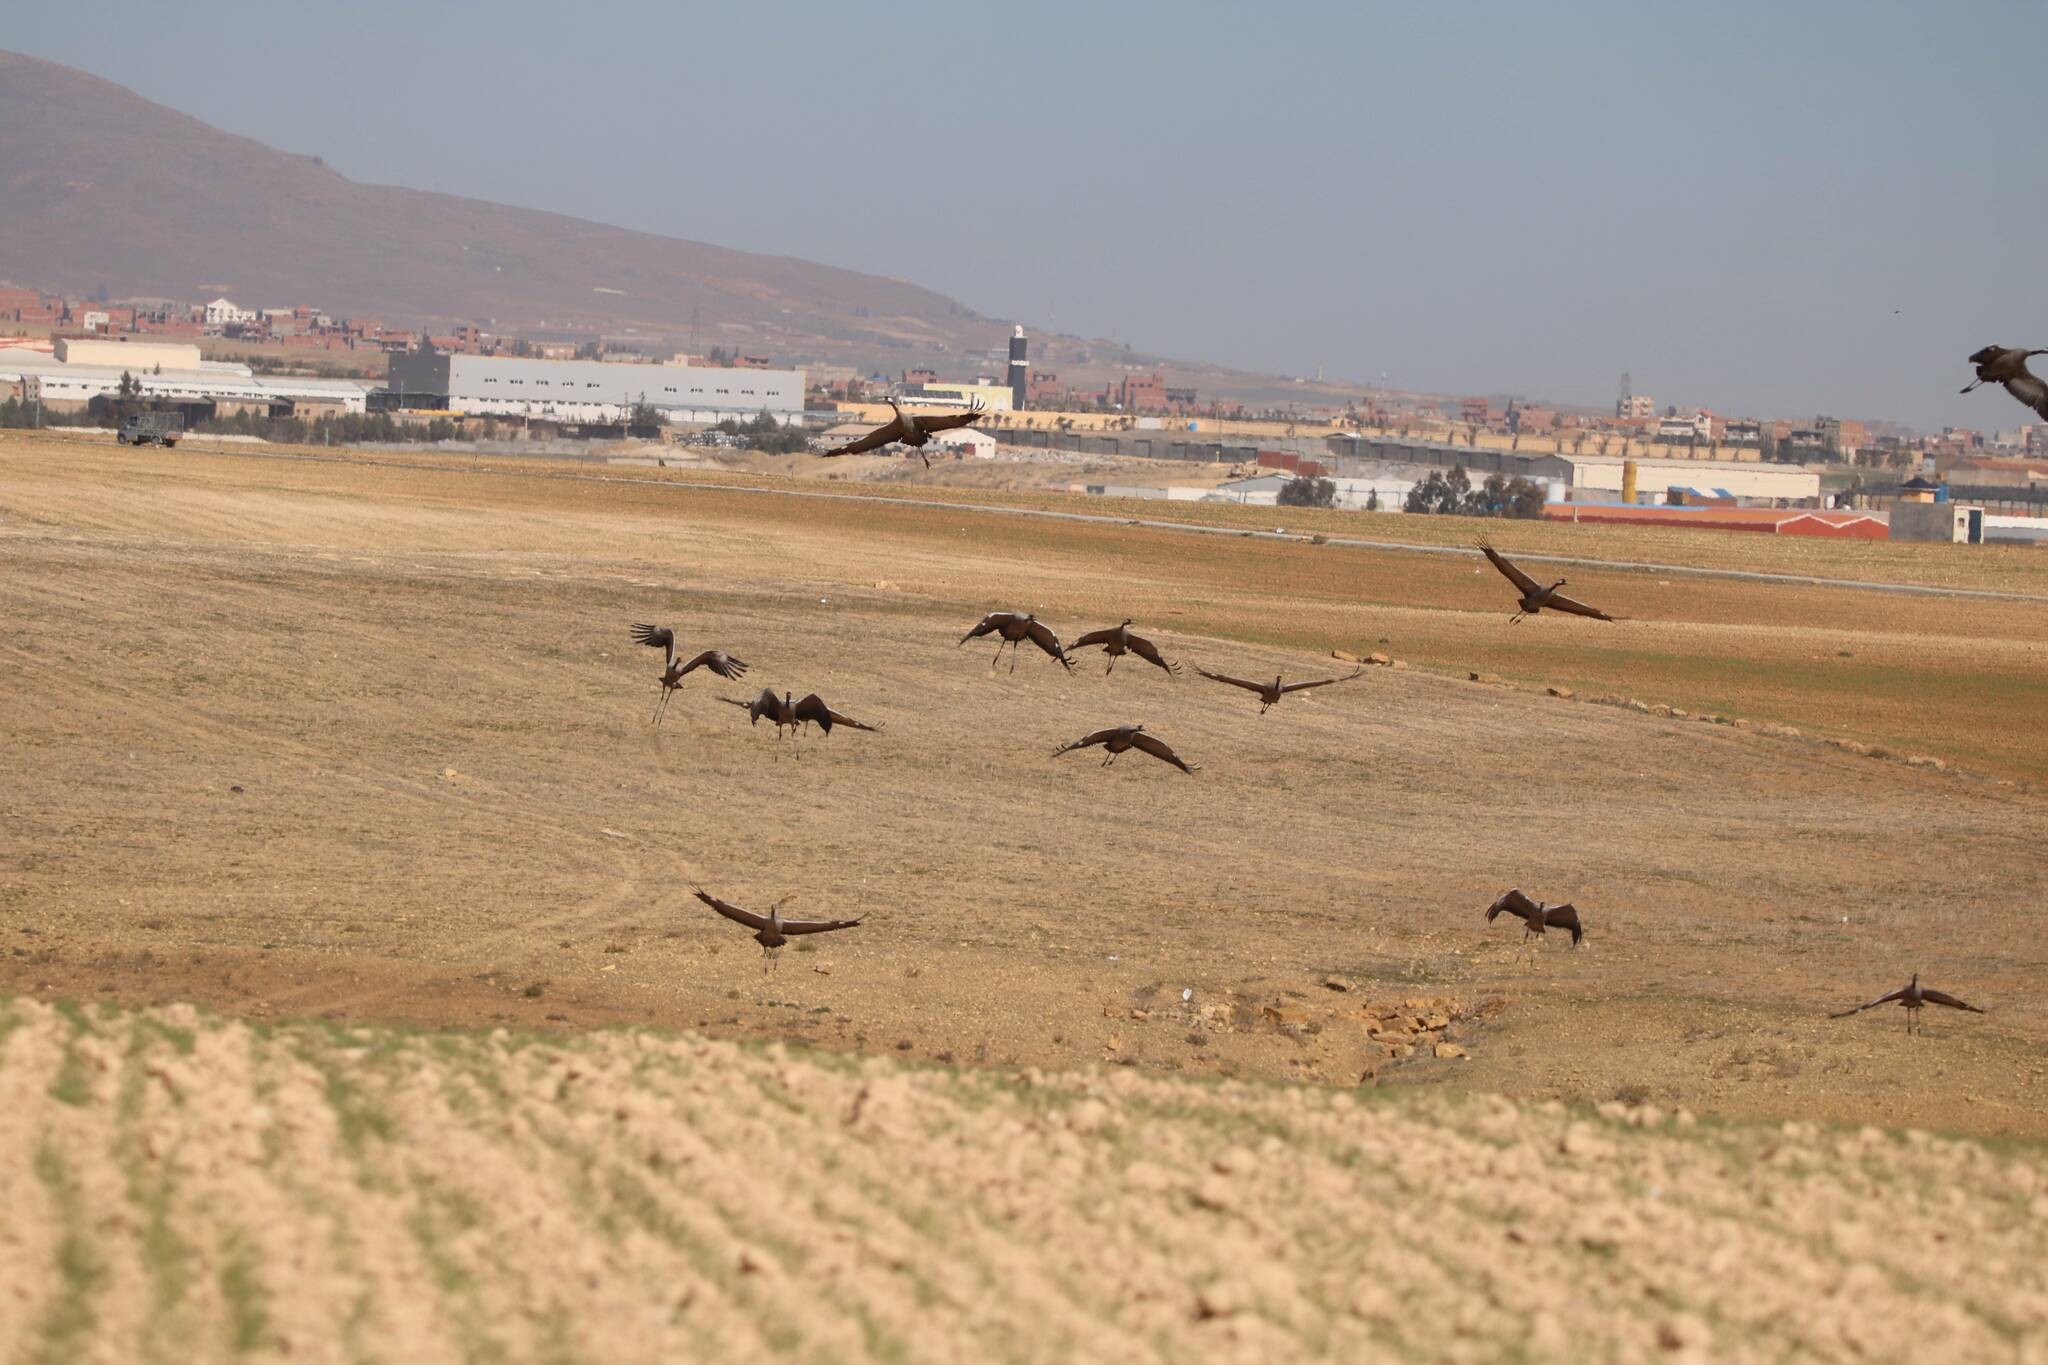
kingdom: Animalia
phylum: Chordata
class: Aves
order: Gruiformes
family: Gruidae
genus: Grus
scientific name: Grus grus
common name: Common crane
